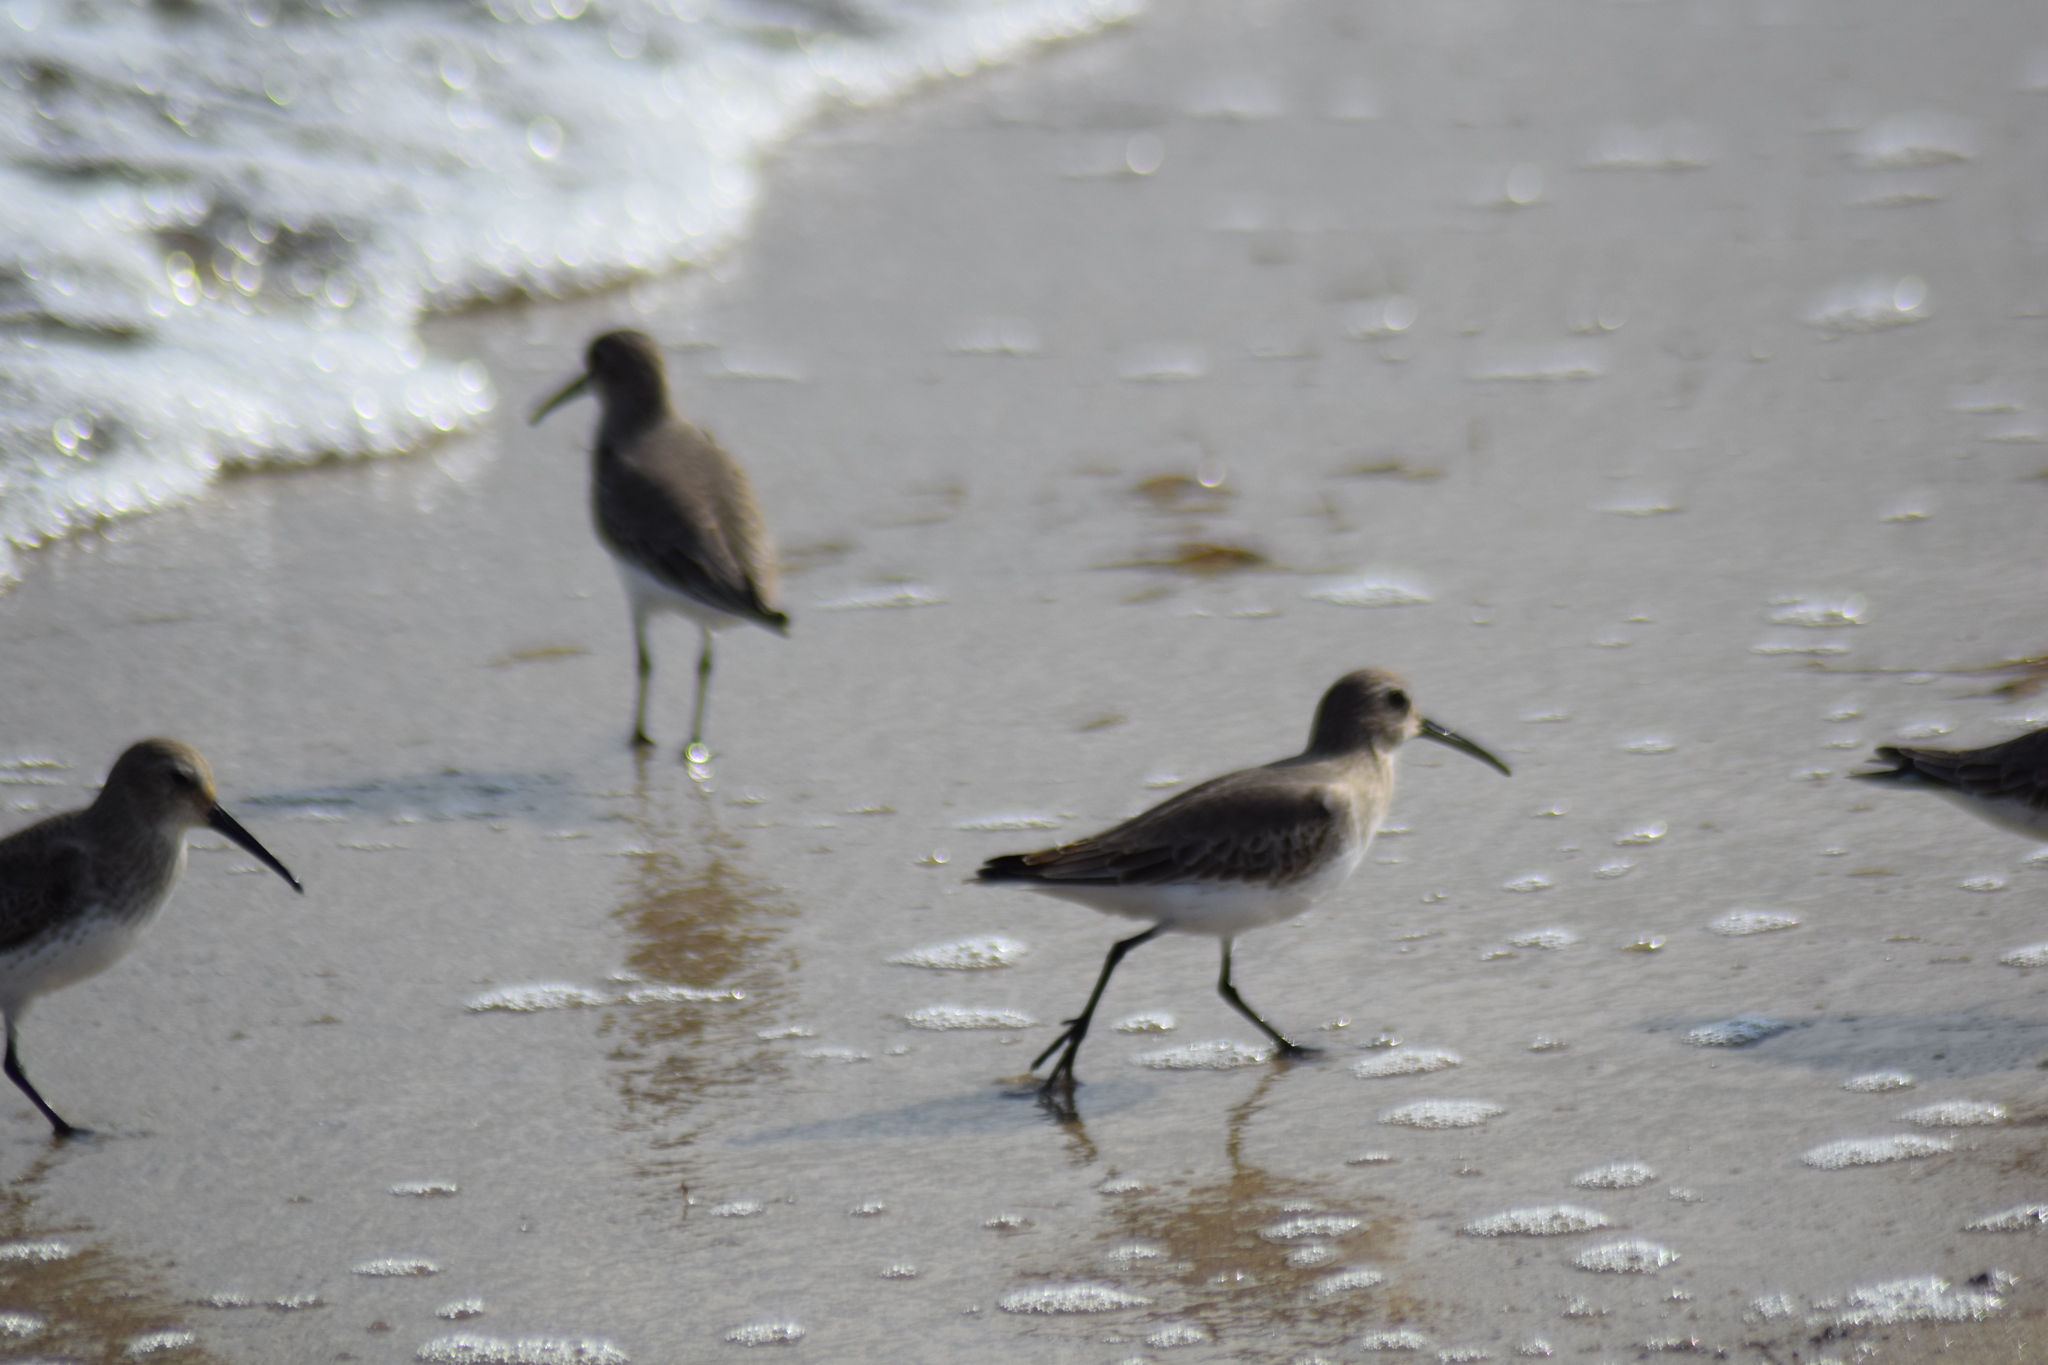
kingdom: Animalia
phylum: Chordata
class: Aves
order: Charadriiformes
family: Scolopacidae
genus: Calidris
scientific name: Calidris alpina
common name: Dunlin
